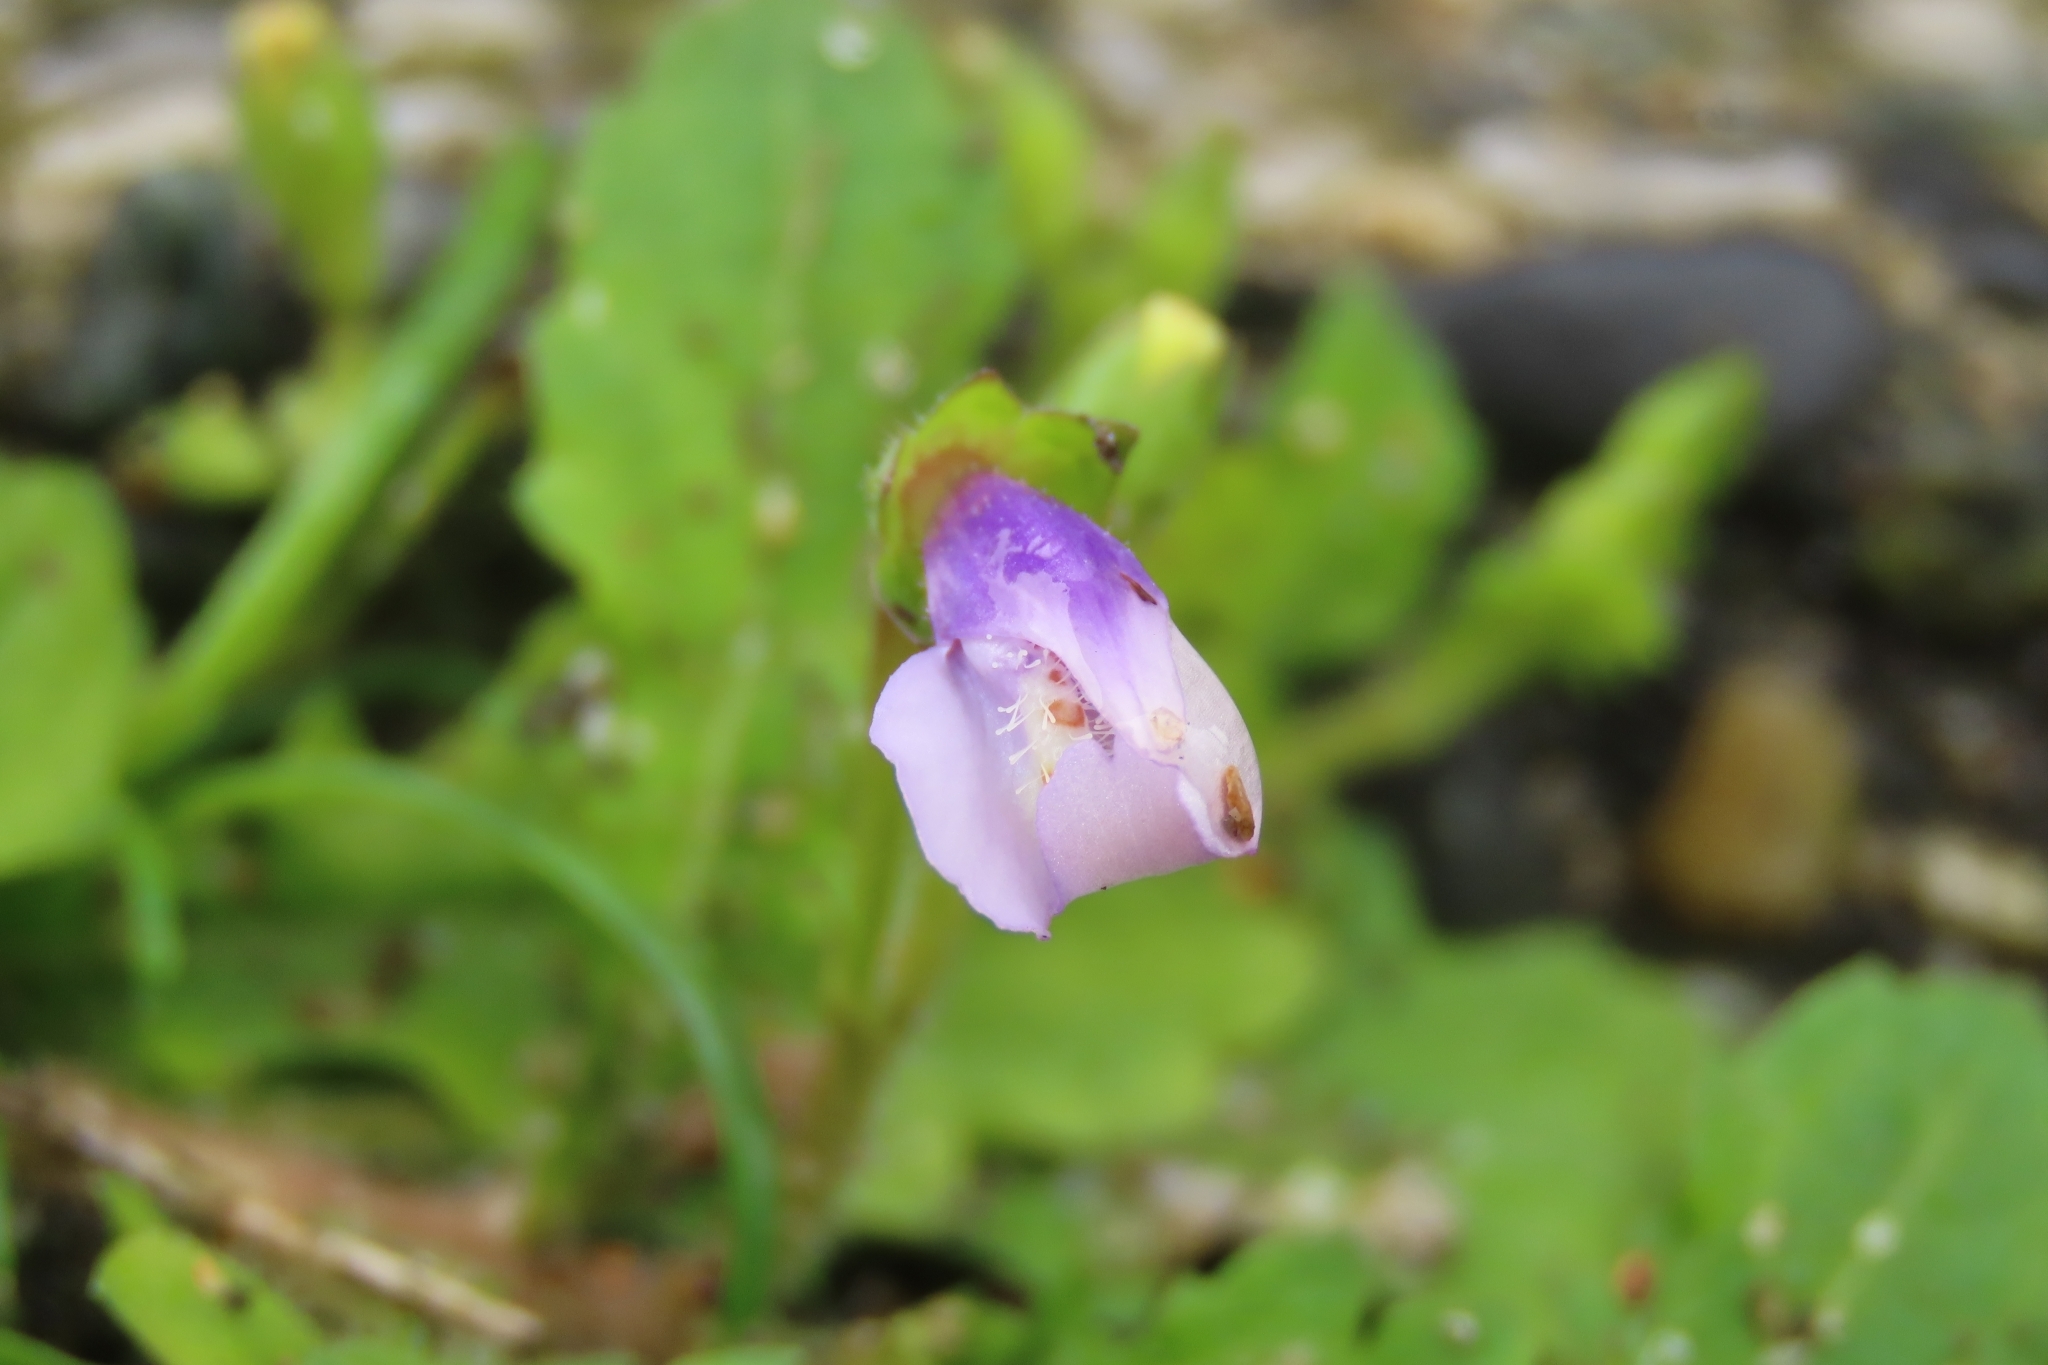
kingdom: Plantae
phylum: Tracheophyta
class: Magnoliopsida
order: Lamiales
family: Mazaceae
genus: Mazus
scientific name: Mazus fauriei
